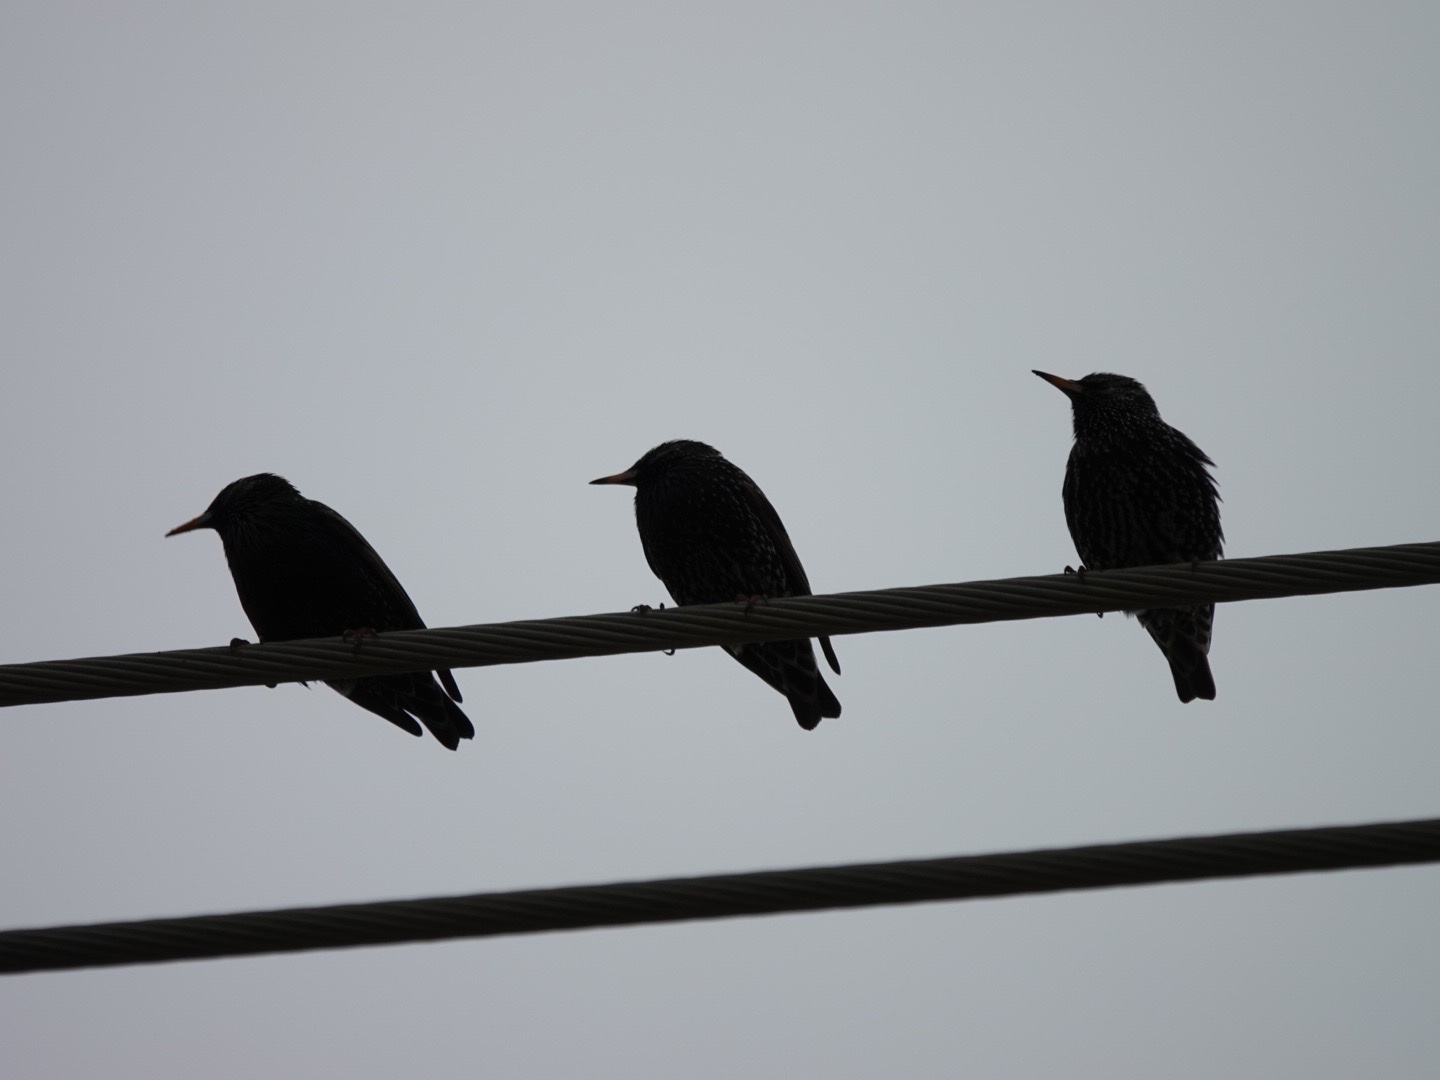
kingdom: Animalia
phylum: Chordata
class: Aves
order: Passeriformes
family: Sturnidae
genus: Sturnus
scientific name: Sturnus vulgaris
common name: Common starling
